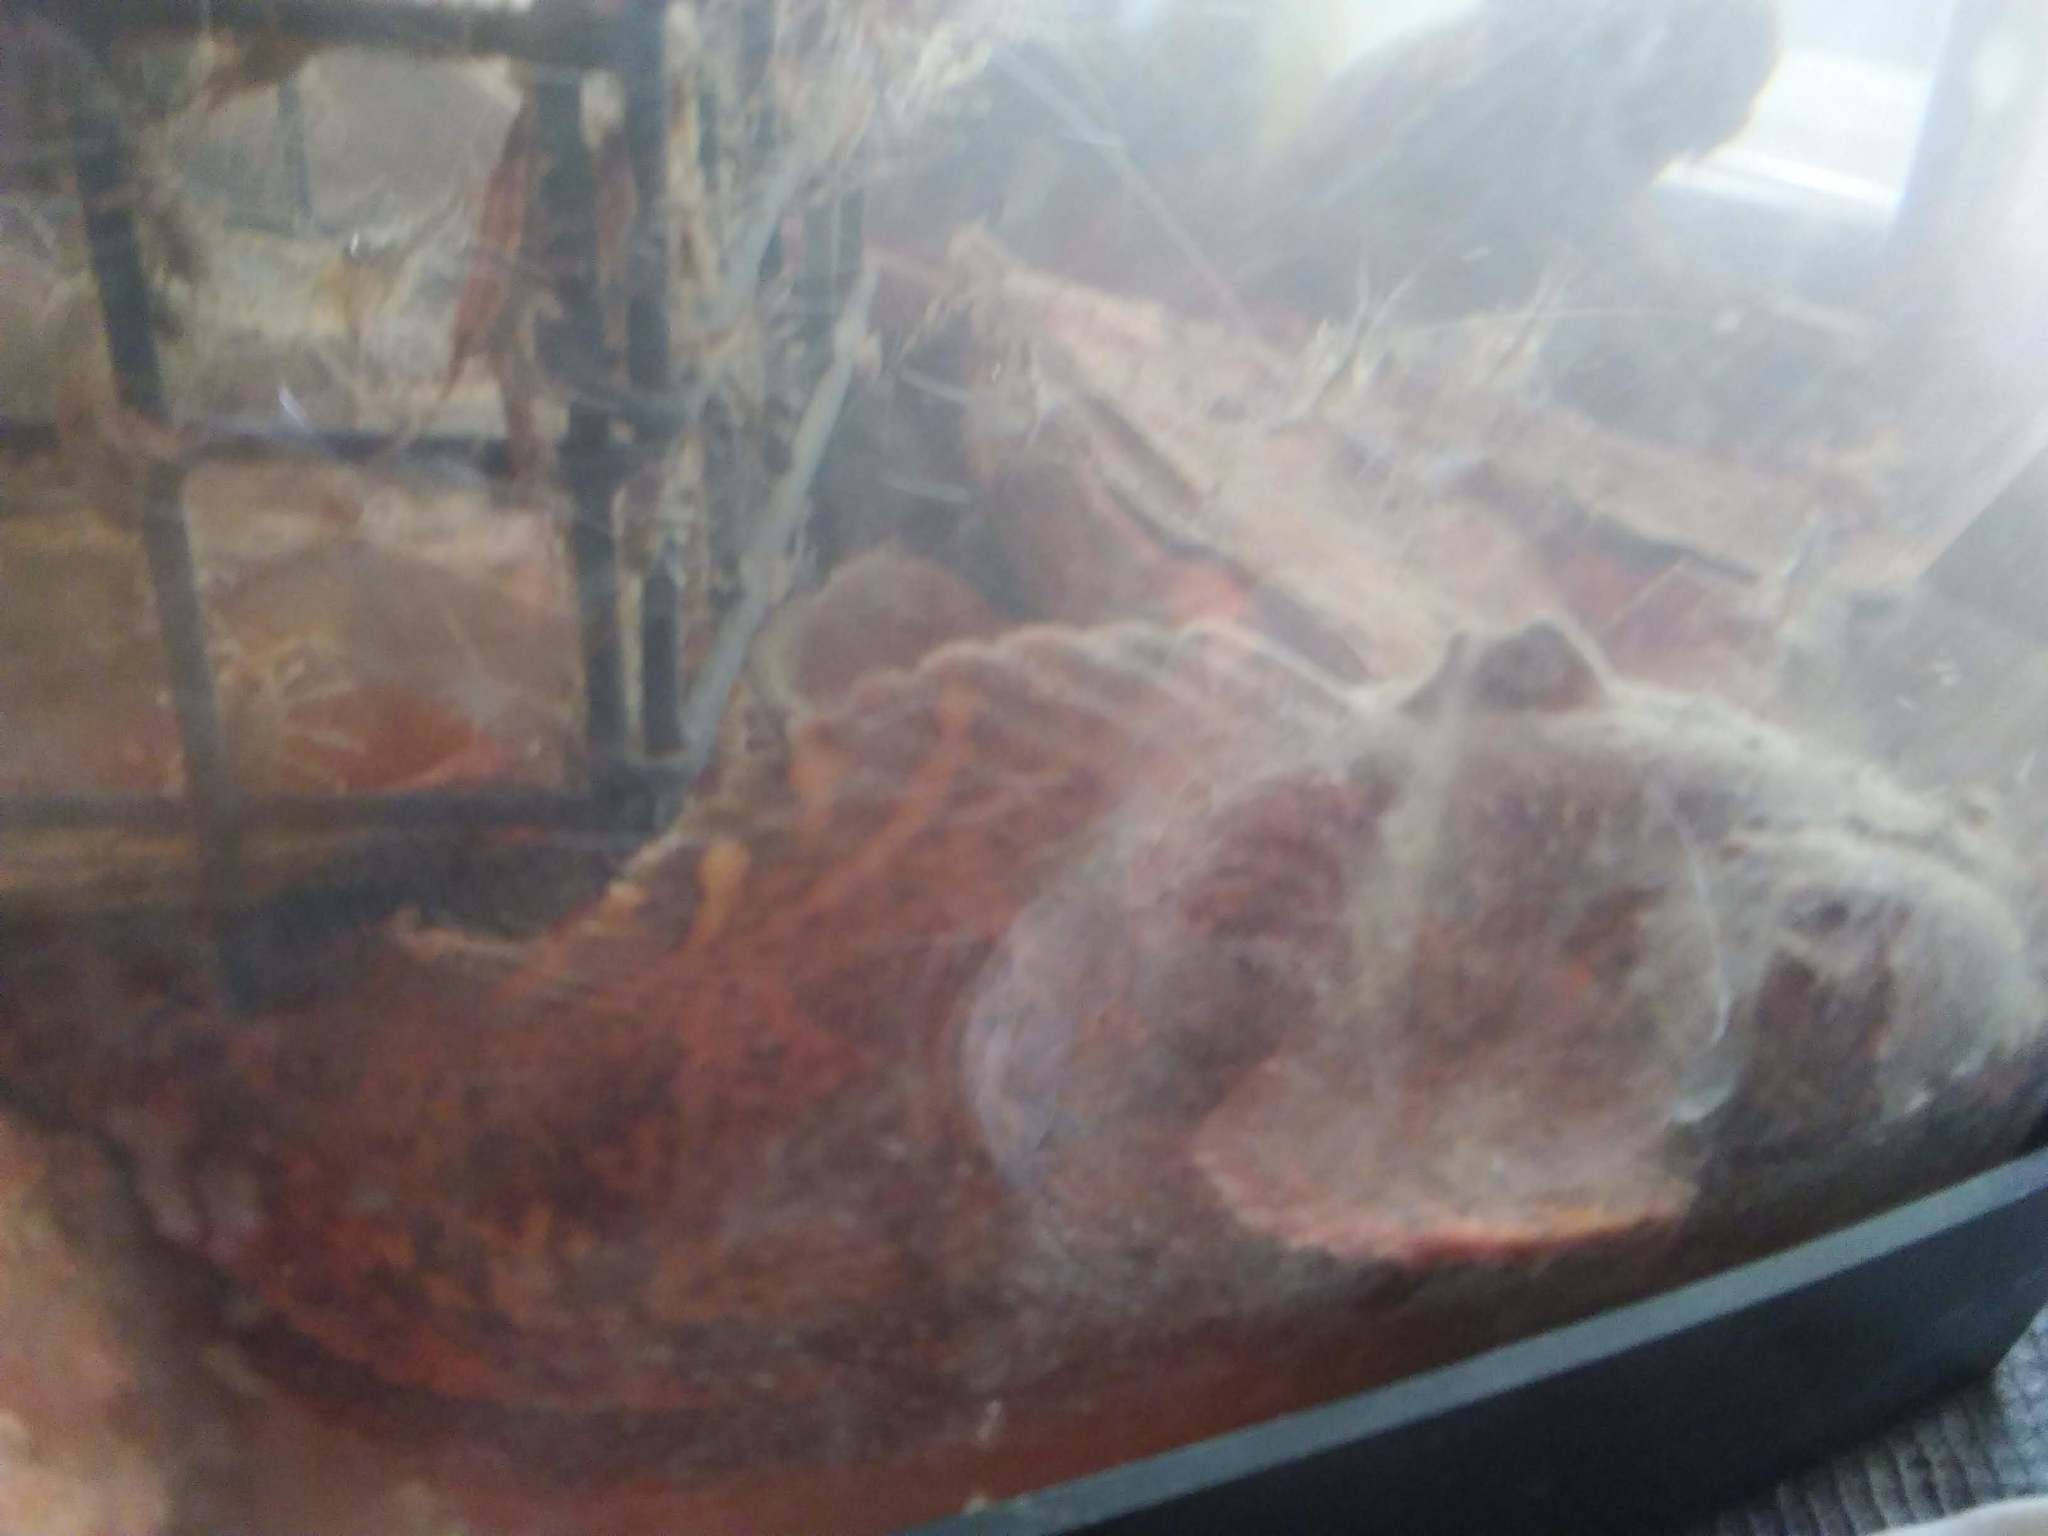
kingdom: Animalia
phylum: Chordata
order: Batrachoidiformes
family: Batrachoididae
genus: Opsanus
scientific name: Opsanus tau
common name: Oyster toadfish
